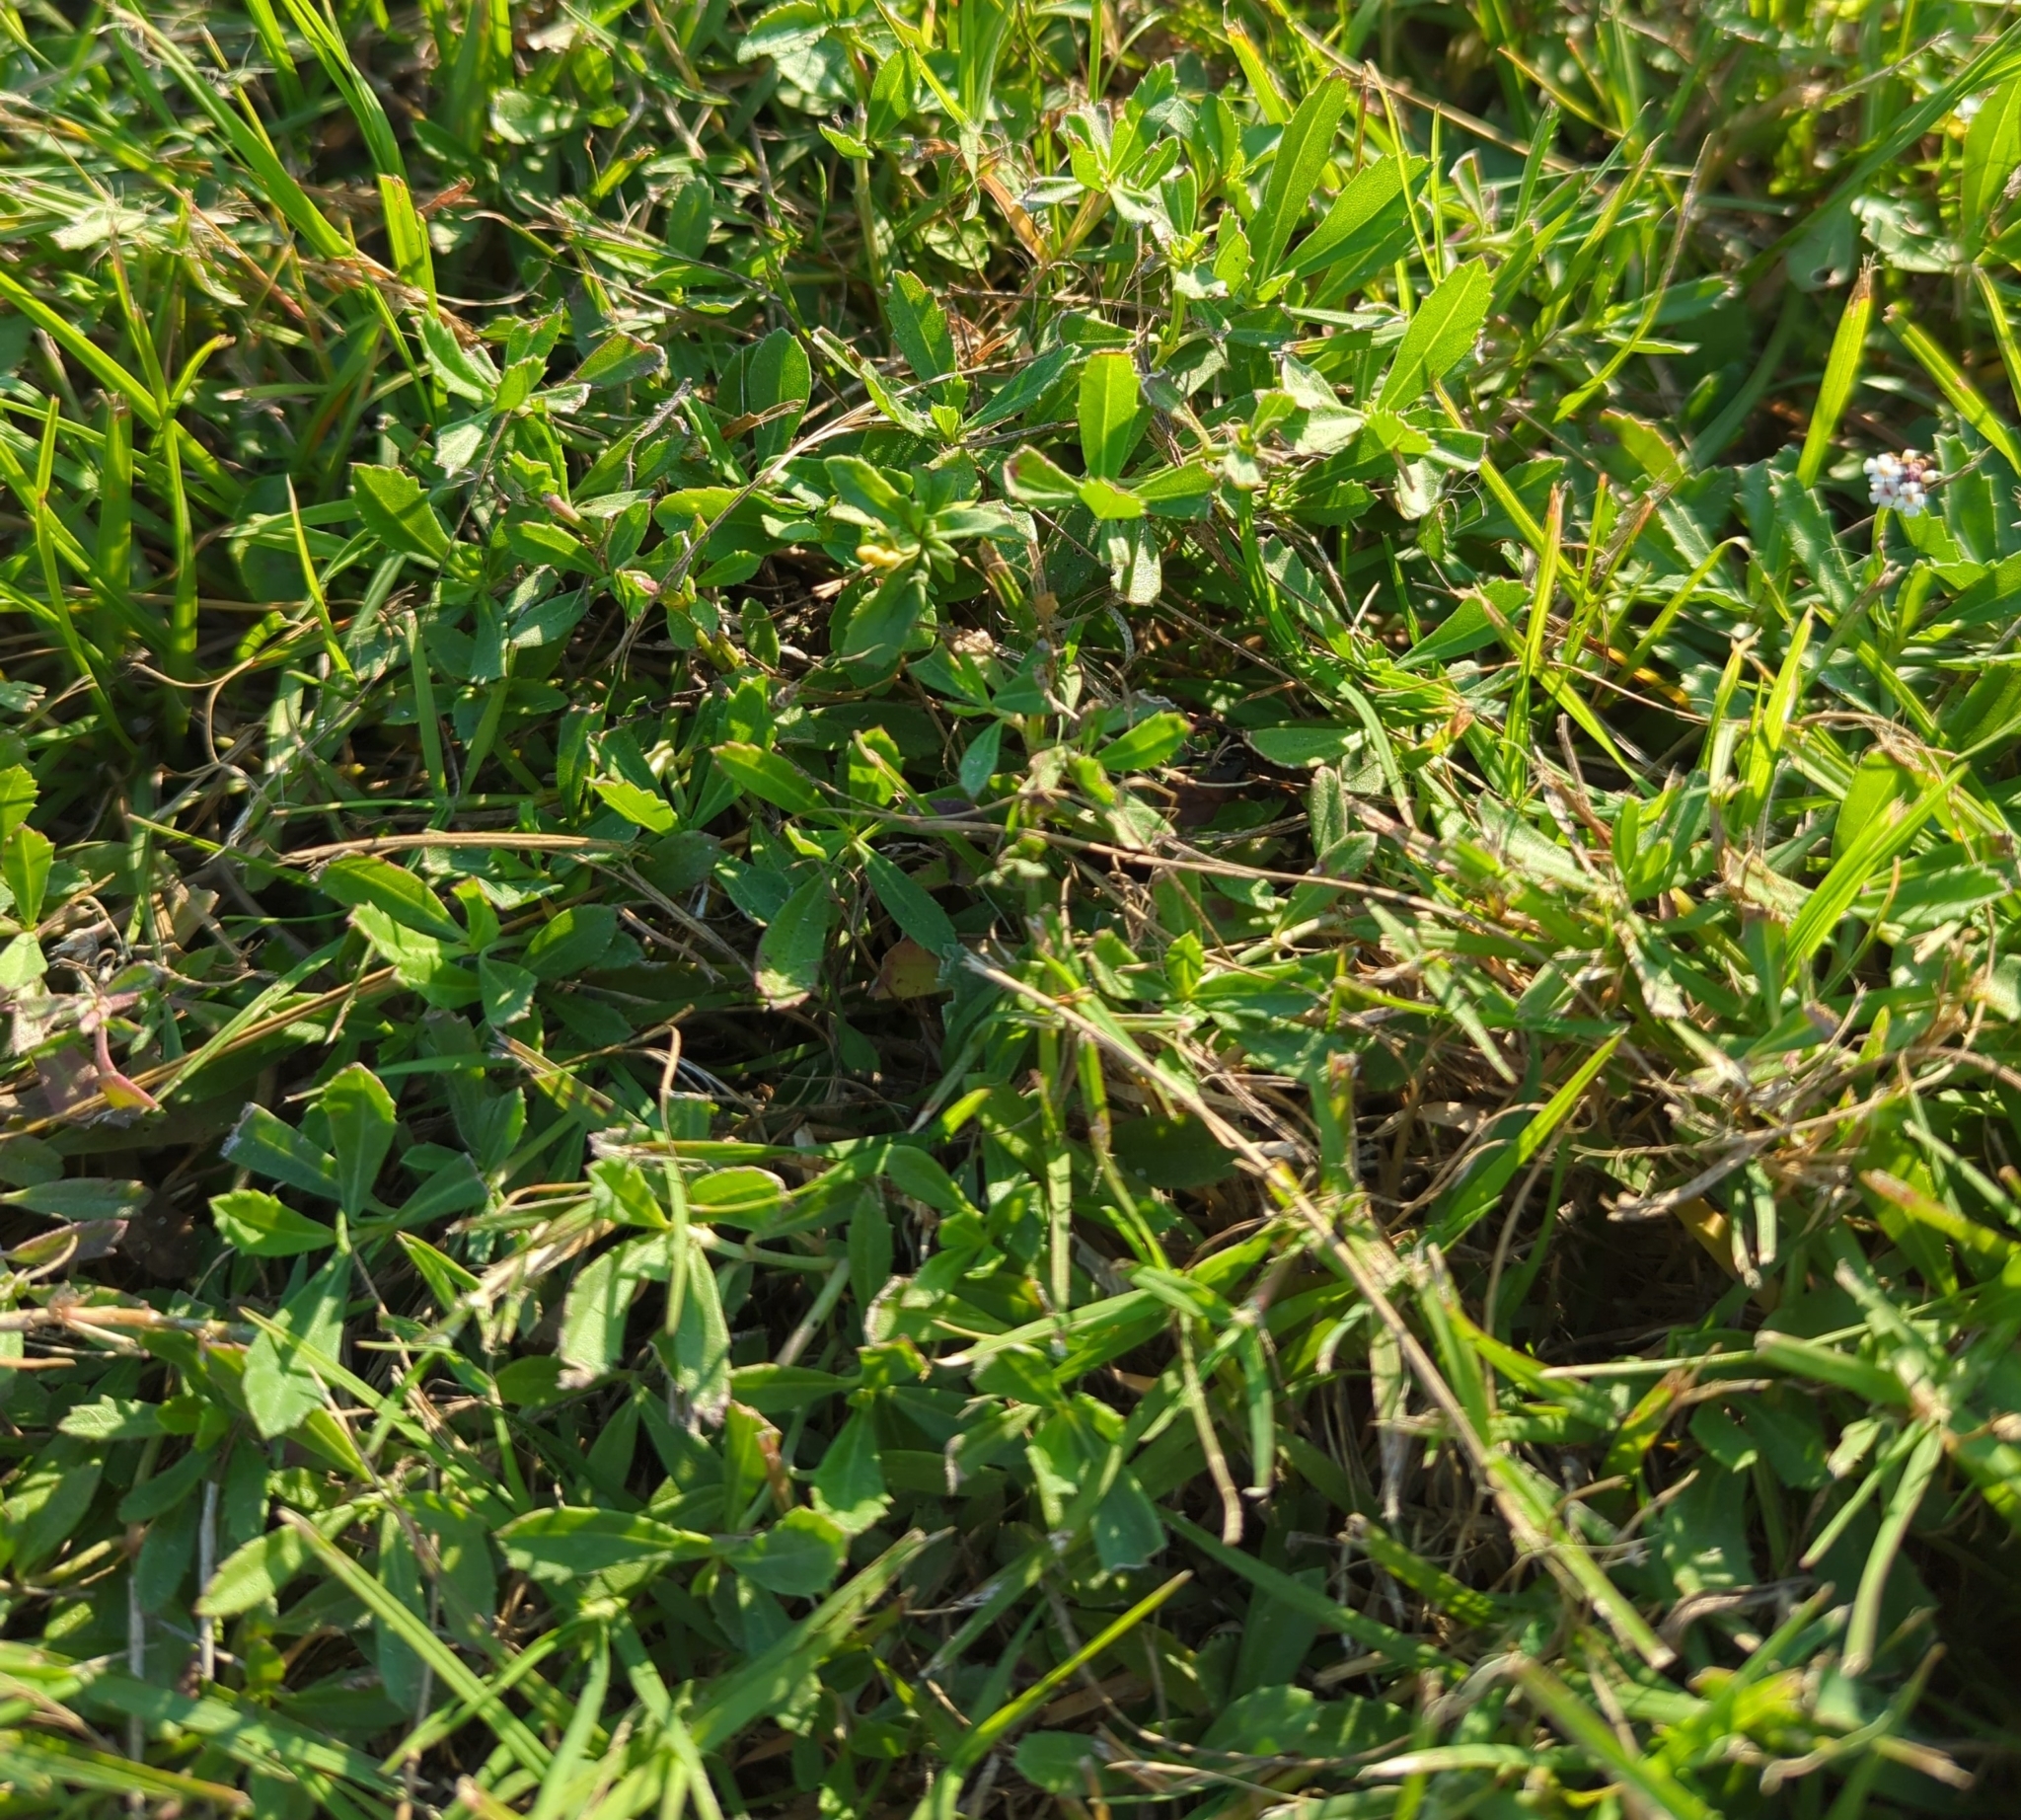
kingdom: Plantae
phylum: Tracheophyta
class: Magnoliopsida
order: Lamiales
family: Verbenaceae
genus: Phyla
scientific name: Phyla nodiflora
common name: Frogfruit
